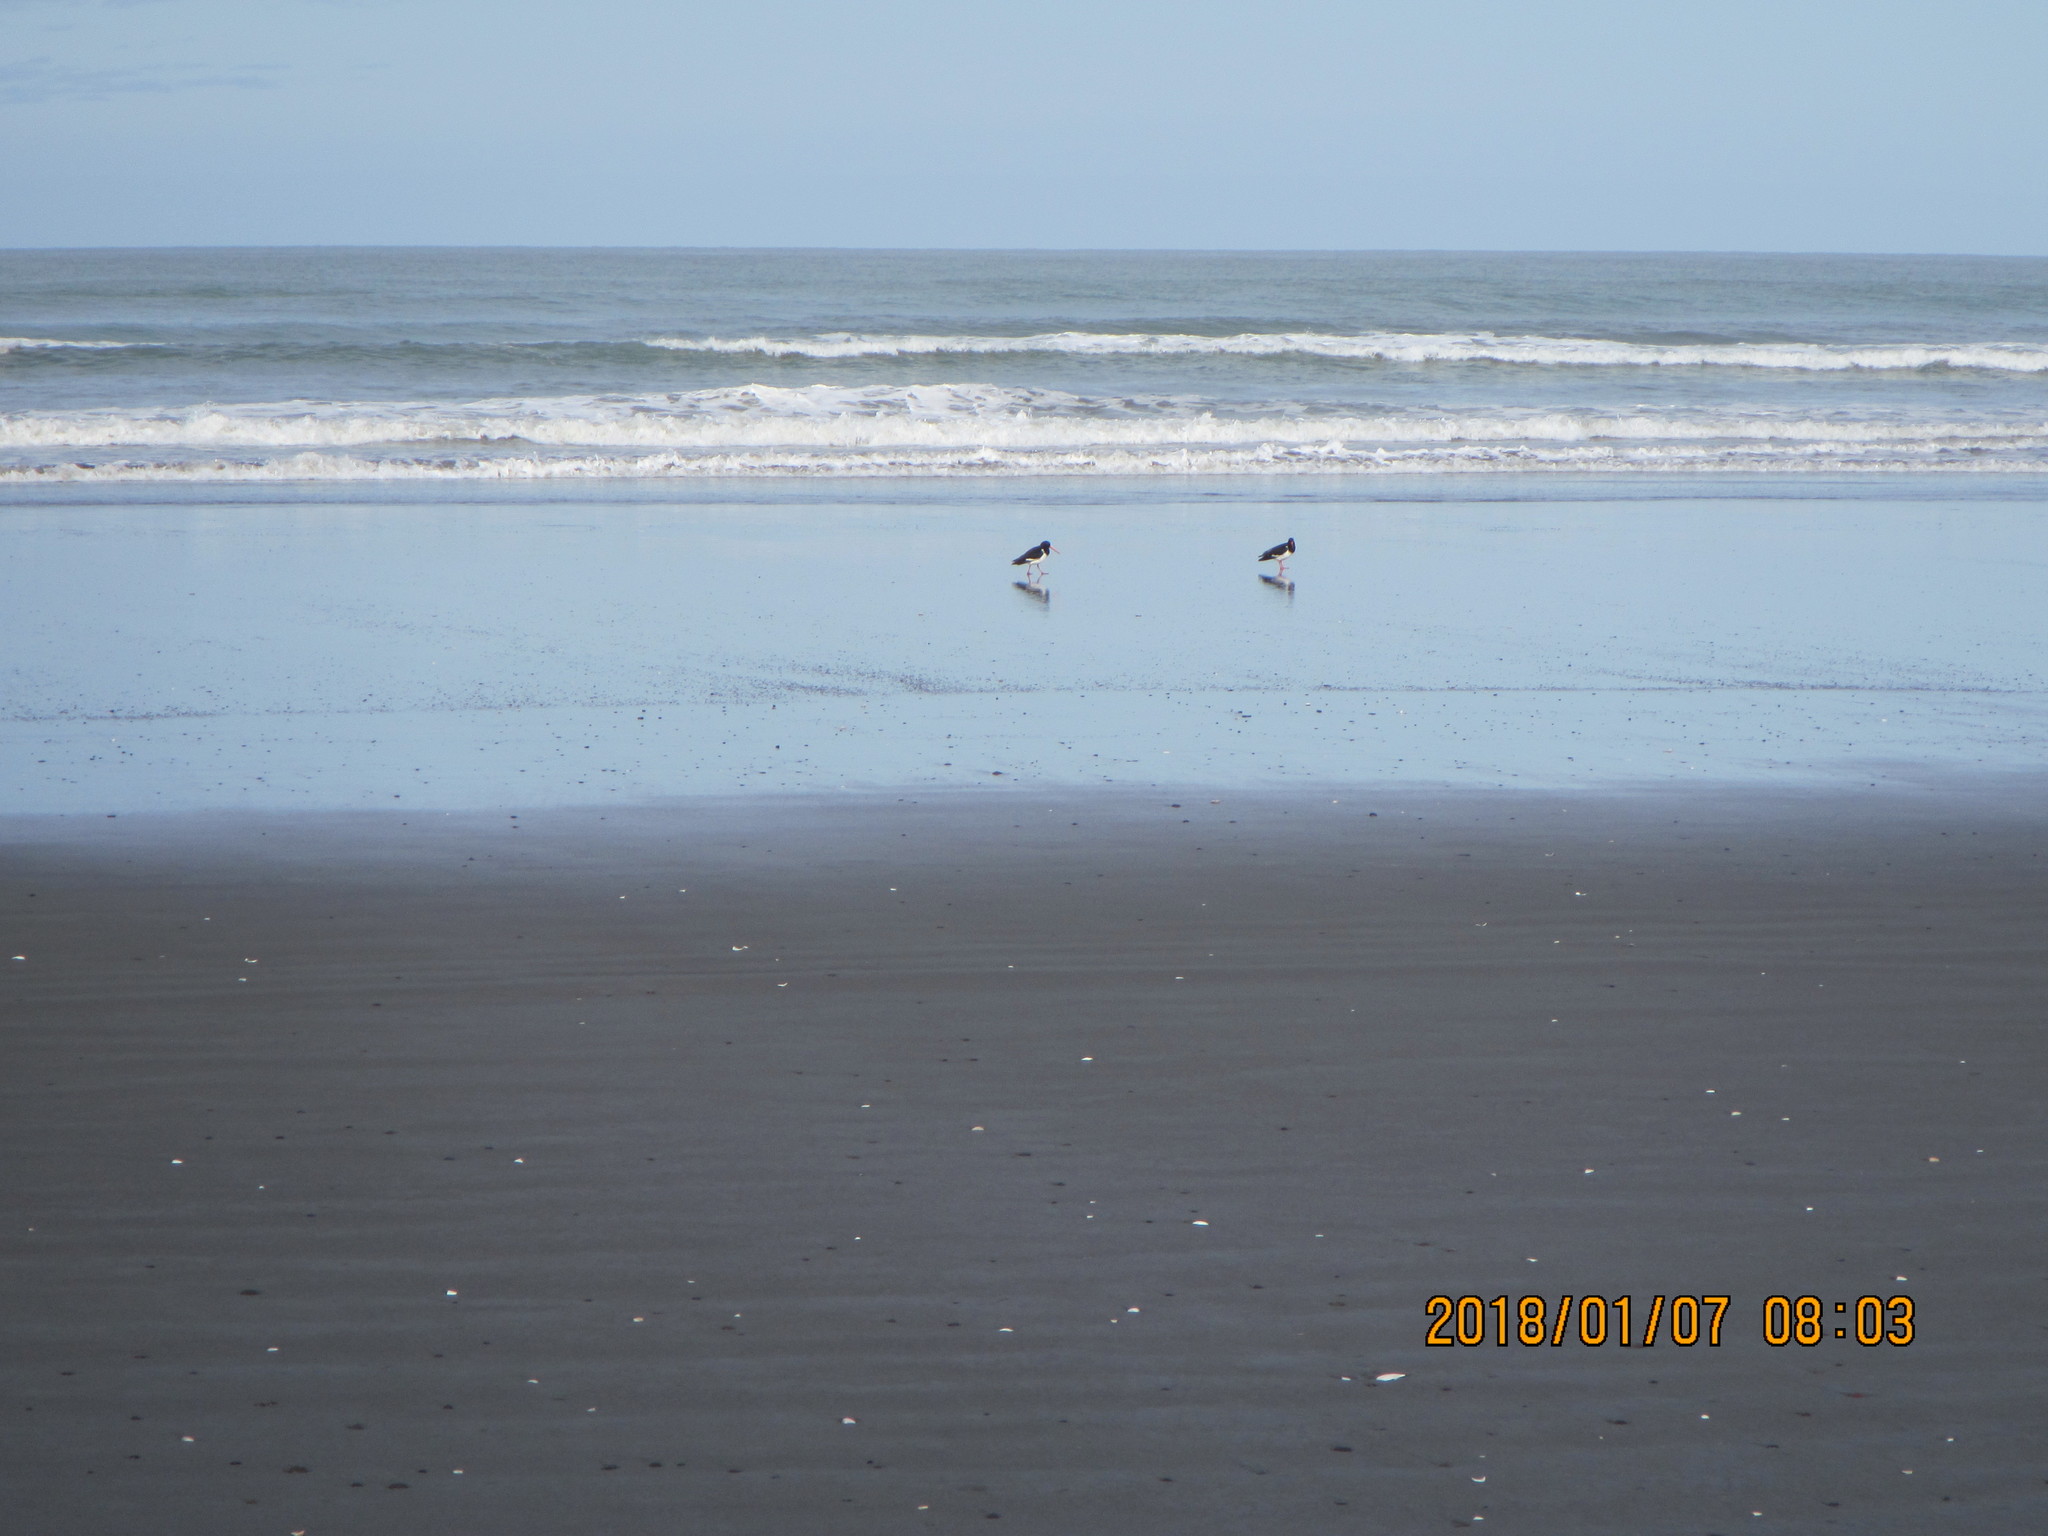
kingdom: Animalia
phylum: Chordata
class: Aves
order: Charadriiformes
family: Haematopodidae
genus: Haematopus
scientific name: Haematopus finschi
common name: South island oystercatcher
